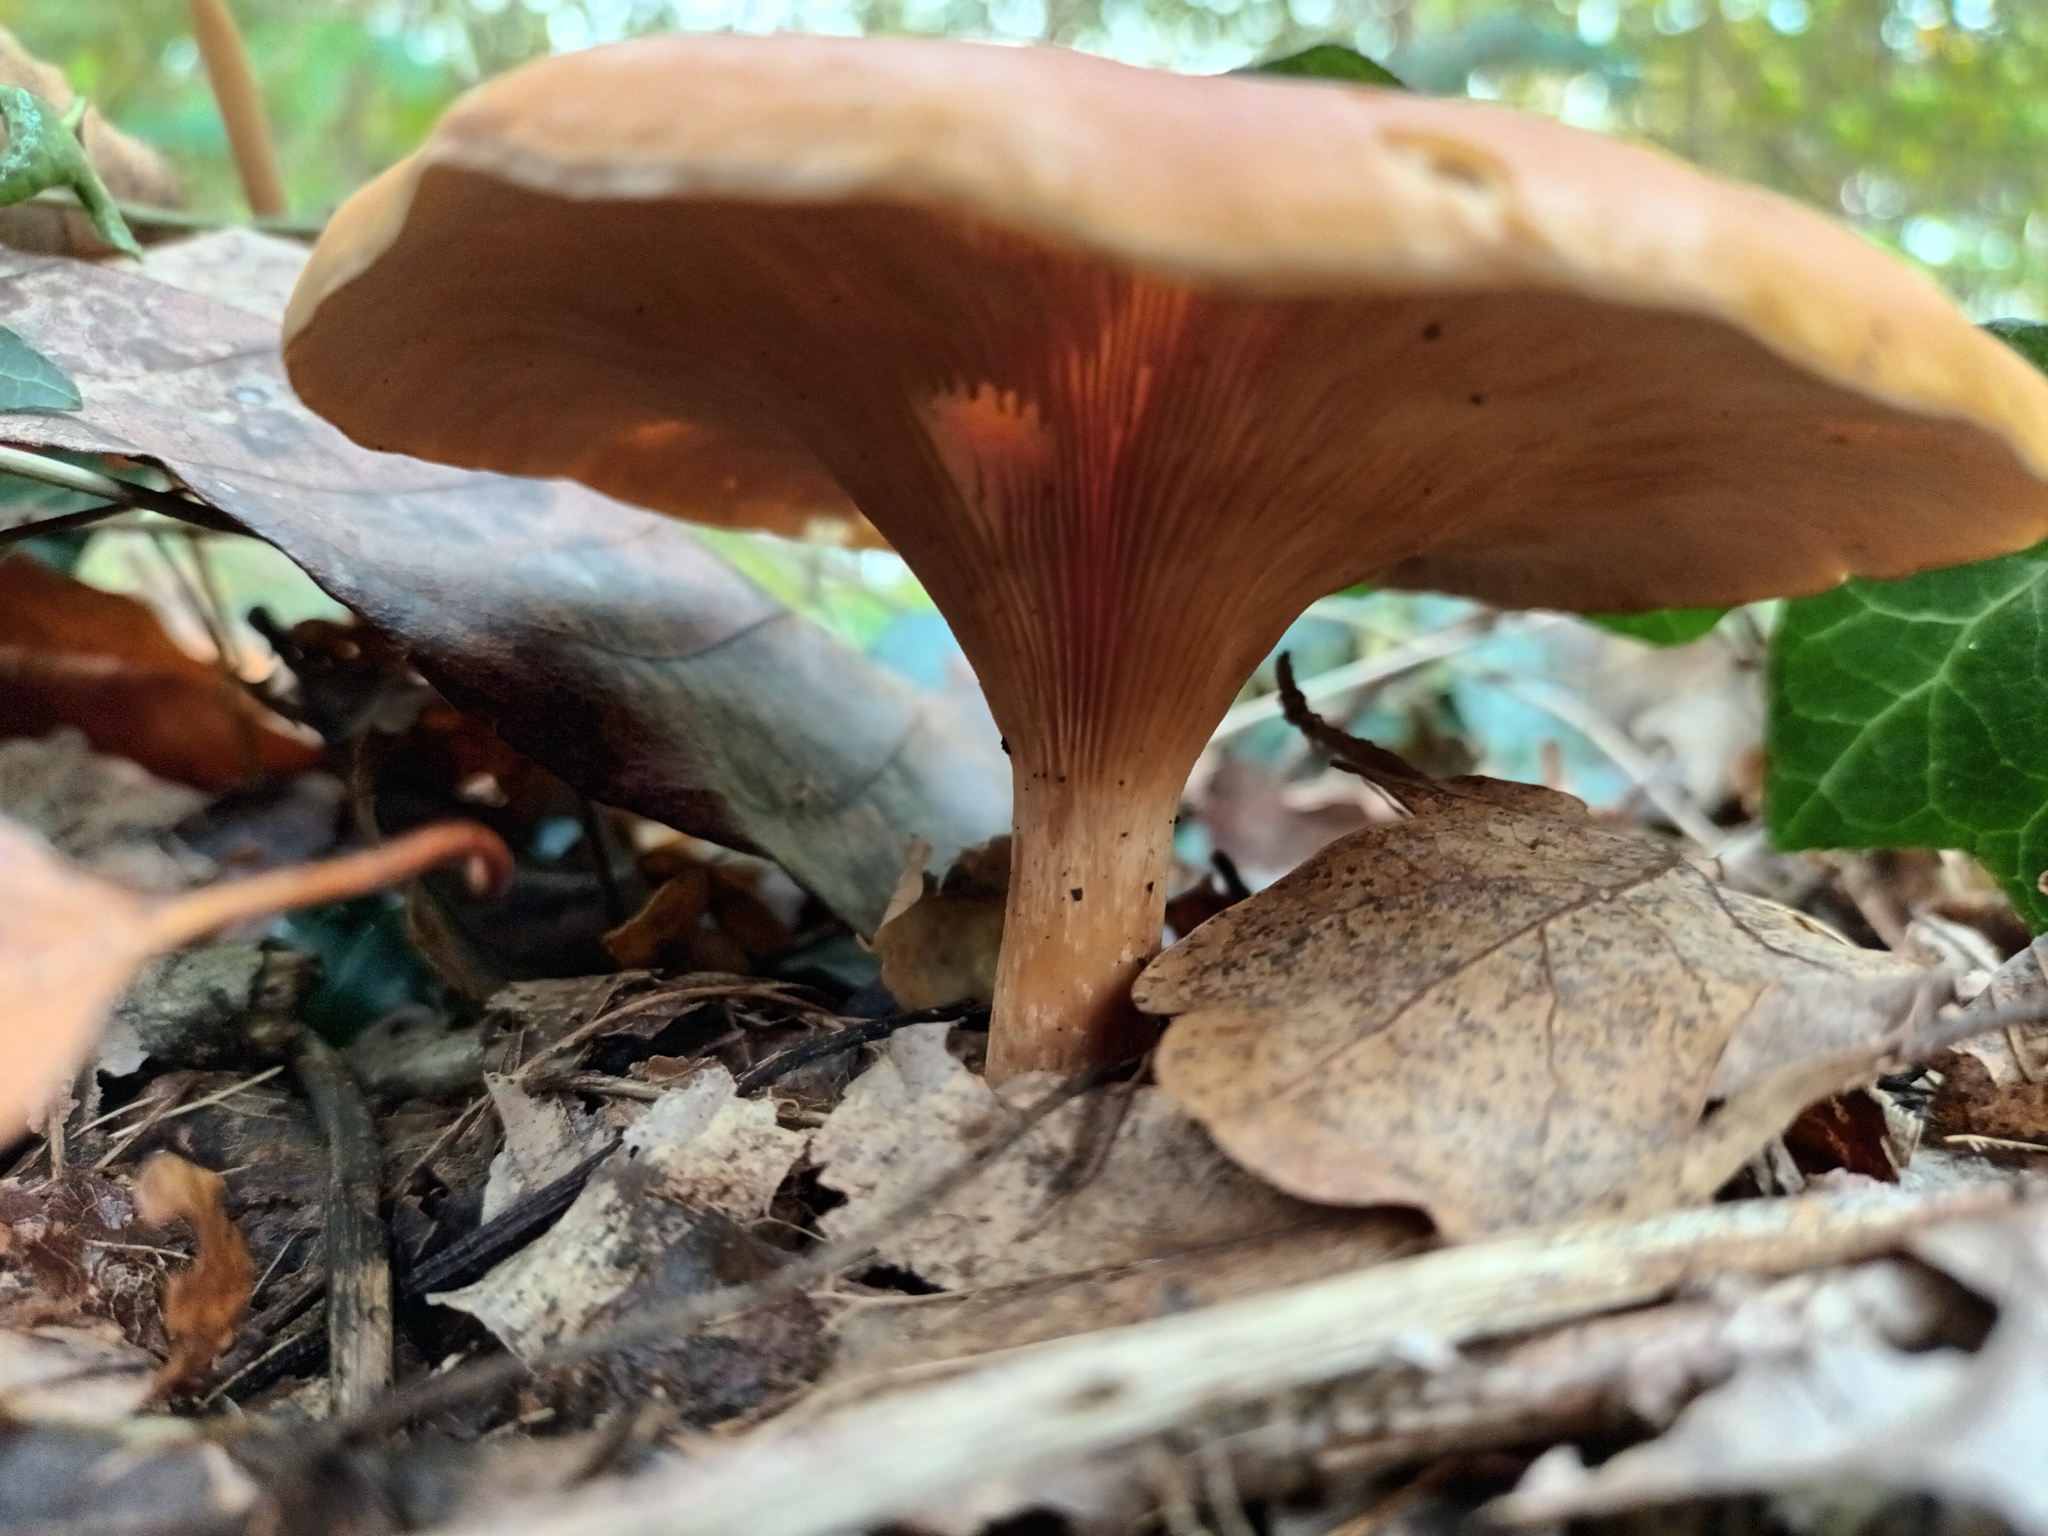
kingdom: Fungi
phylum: Basidiomycota
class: Agaricomycetes
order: Agaricales
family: Tricholomataceae
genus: Paralepista
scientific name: Paralepista flaccida
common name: Tawny funnel cap
